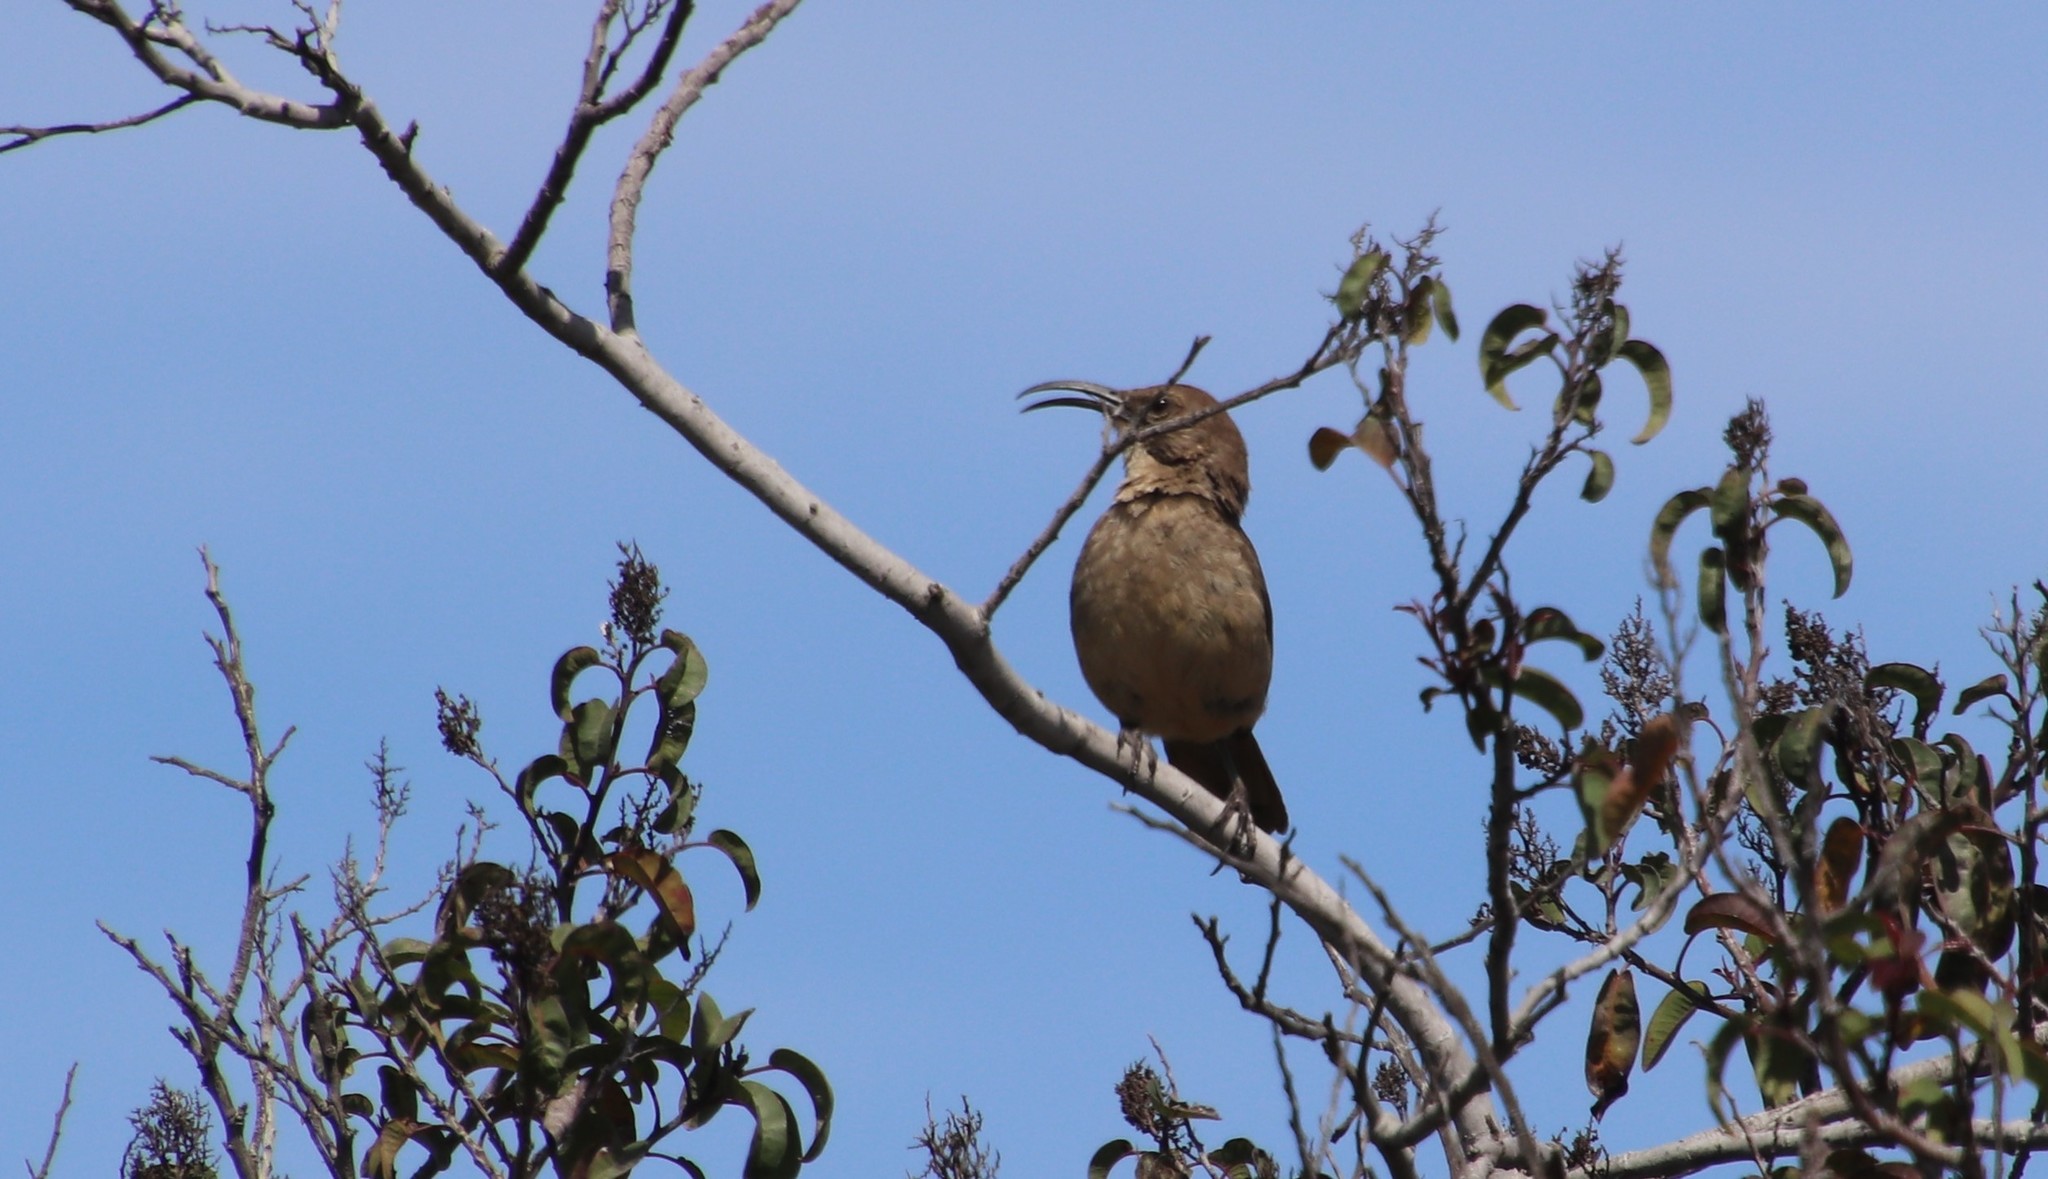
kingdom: Animalia
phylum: Chordata
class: Aves
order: Passeriformes
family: Mimidae
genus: Toxostoma
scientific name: Toxostoma redivivum
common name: California thrasher
